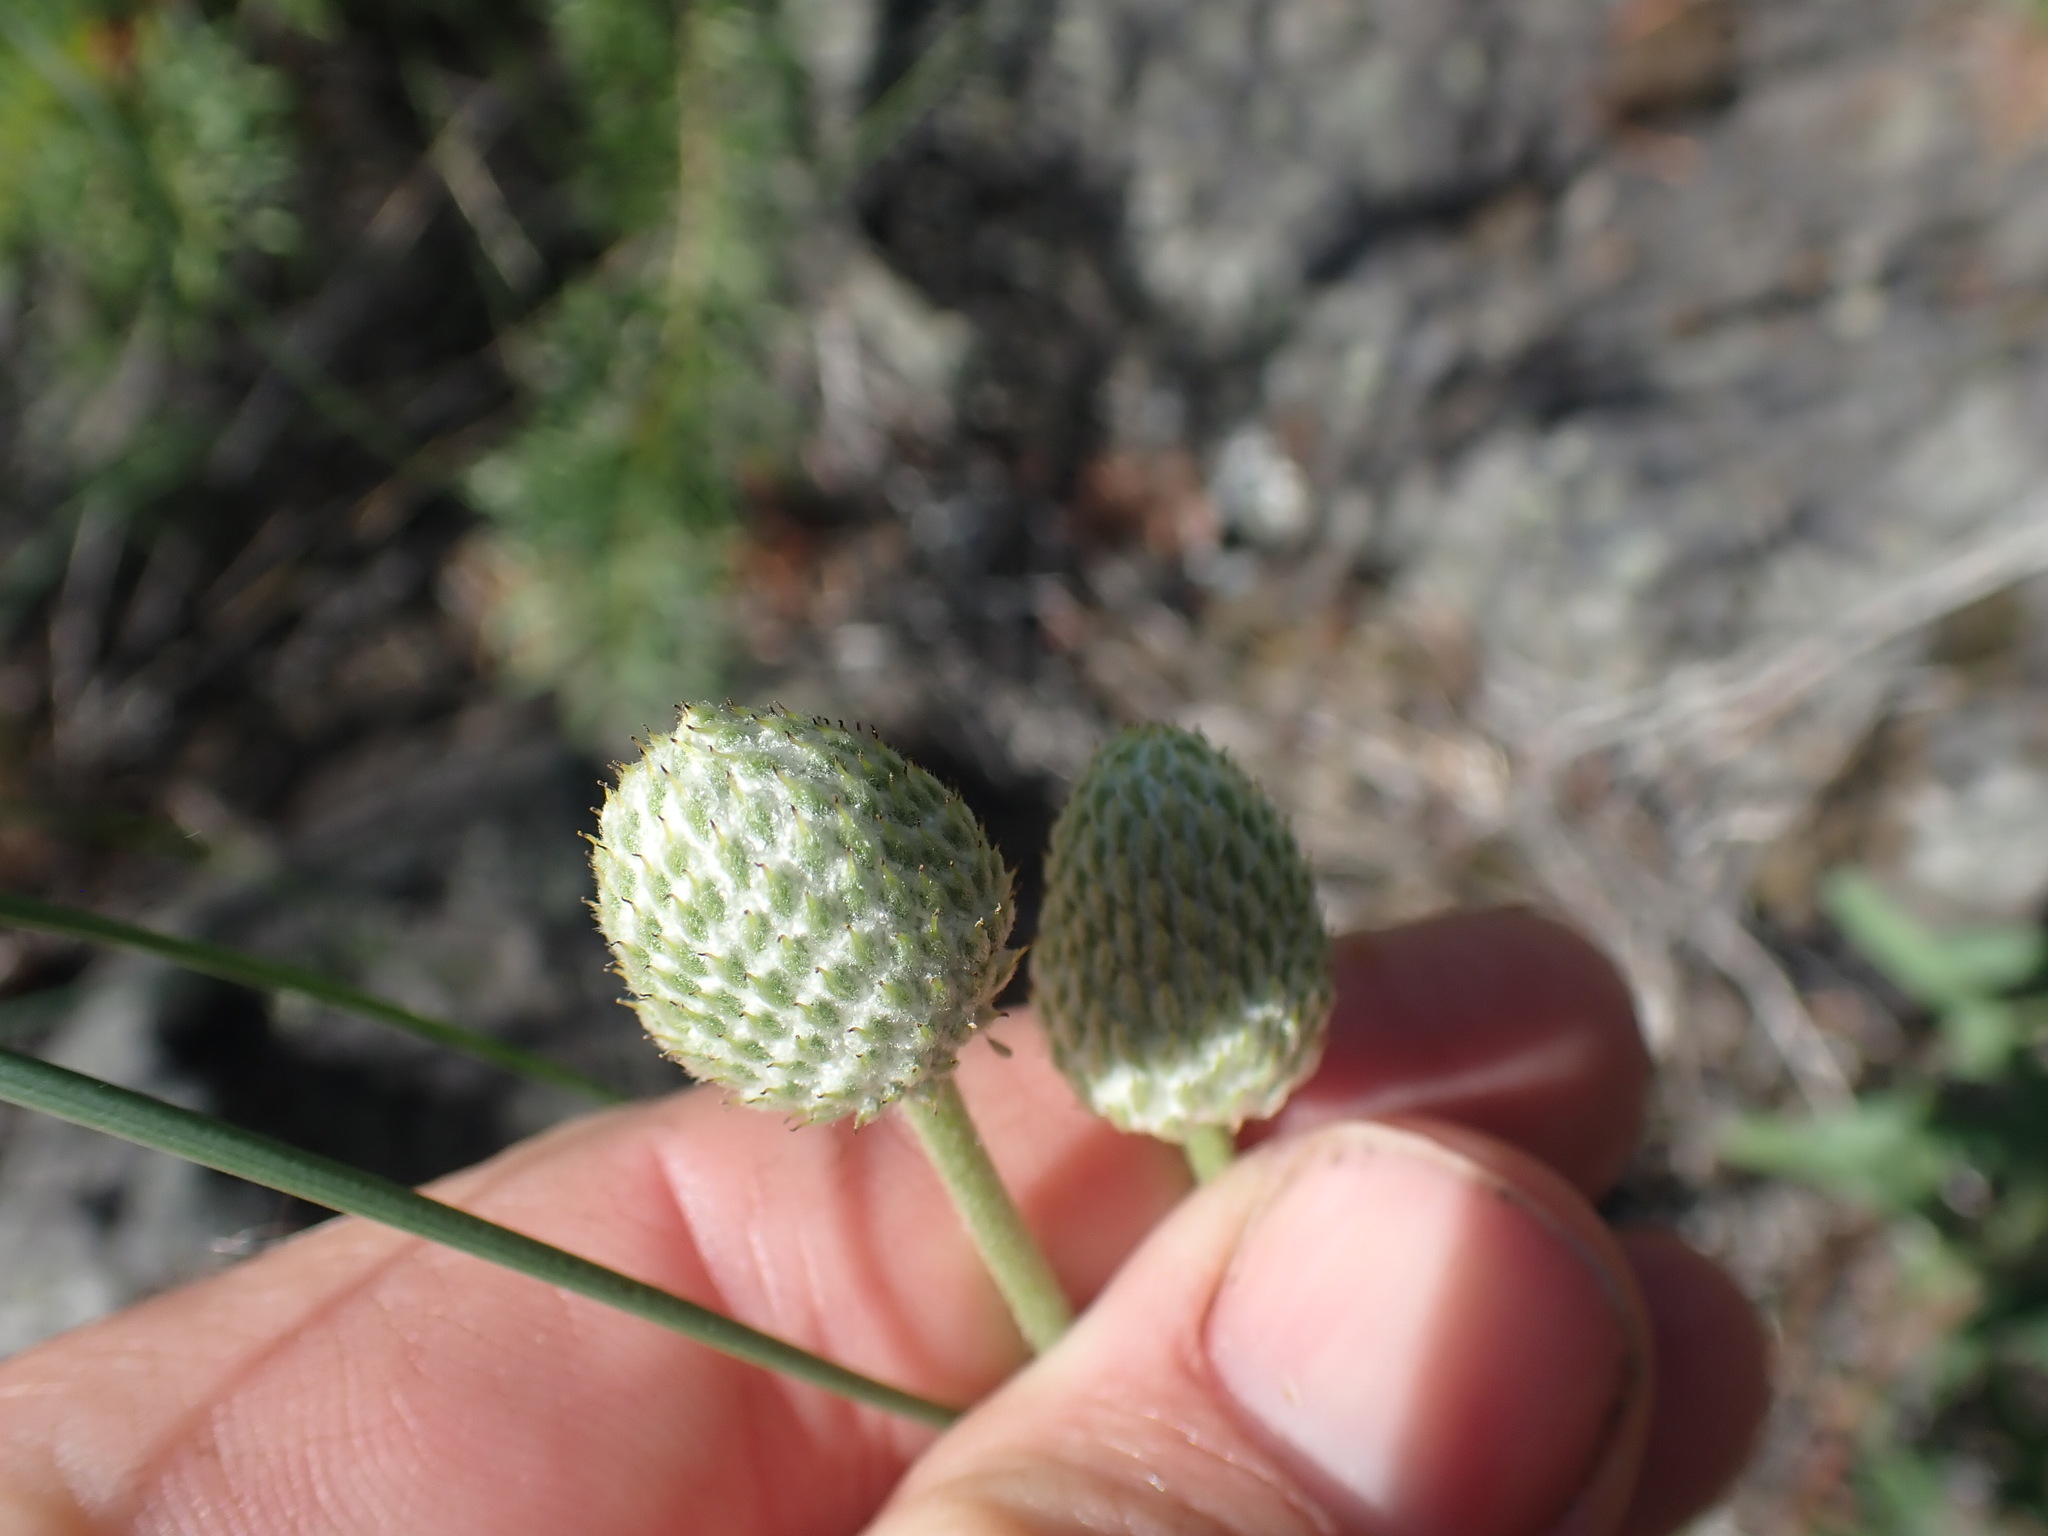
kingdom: Plantae
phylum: Tracheophyta
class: Magnoliopsida
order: Ranunculales
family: Ranunculaceae
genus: Anemone
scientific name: Anemone multifida
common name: Bird's-foot anemone
